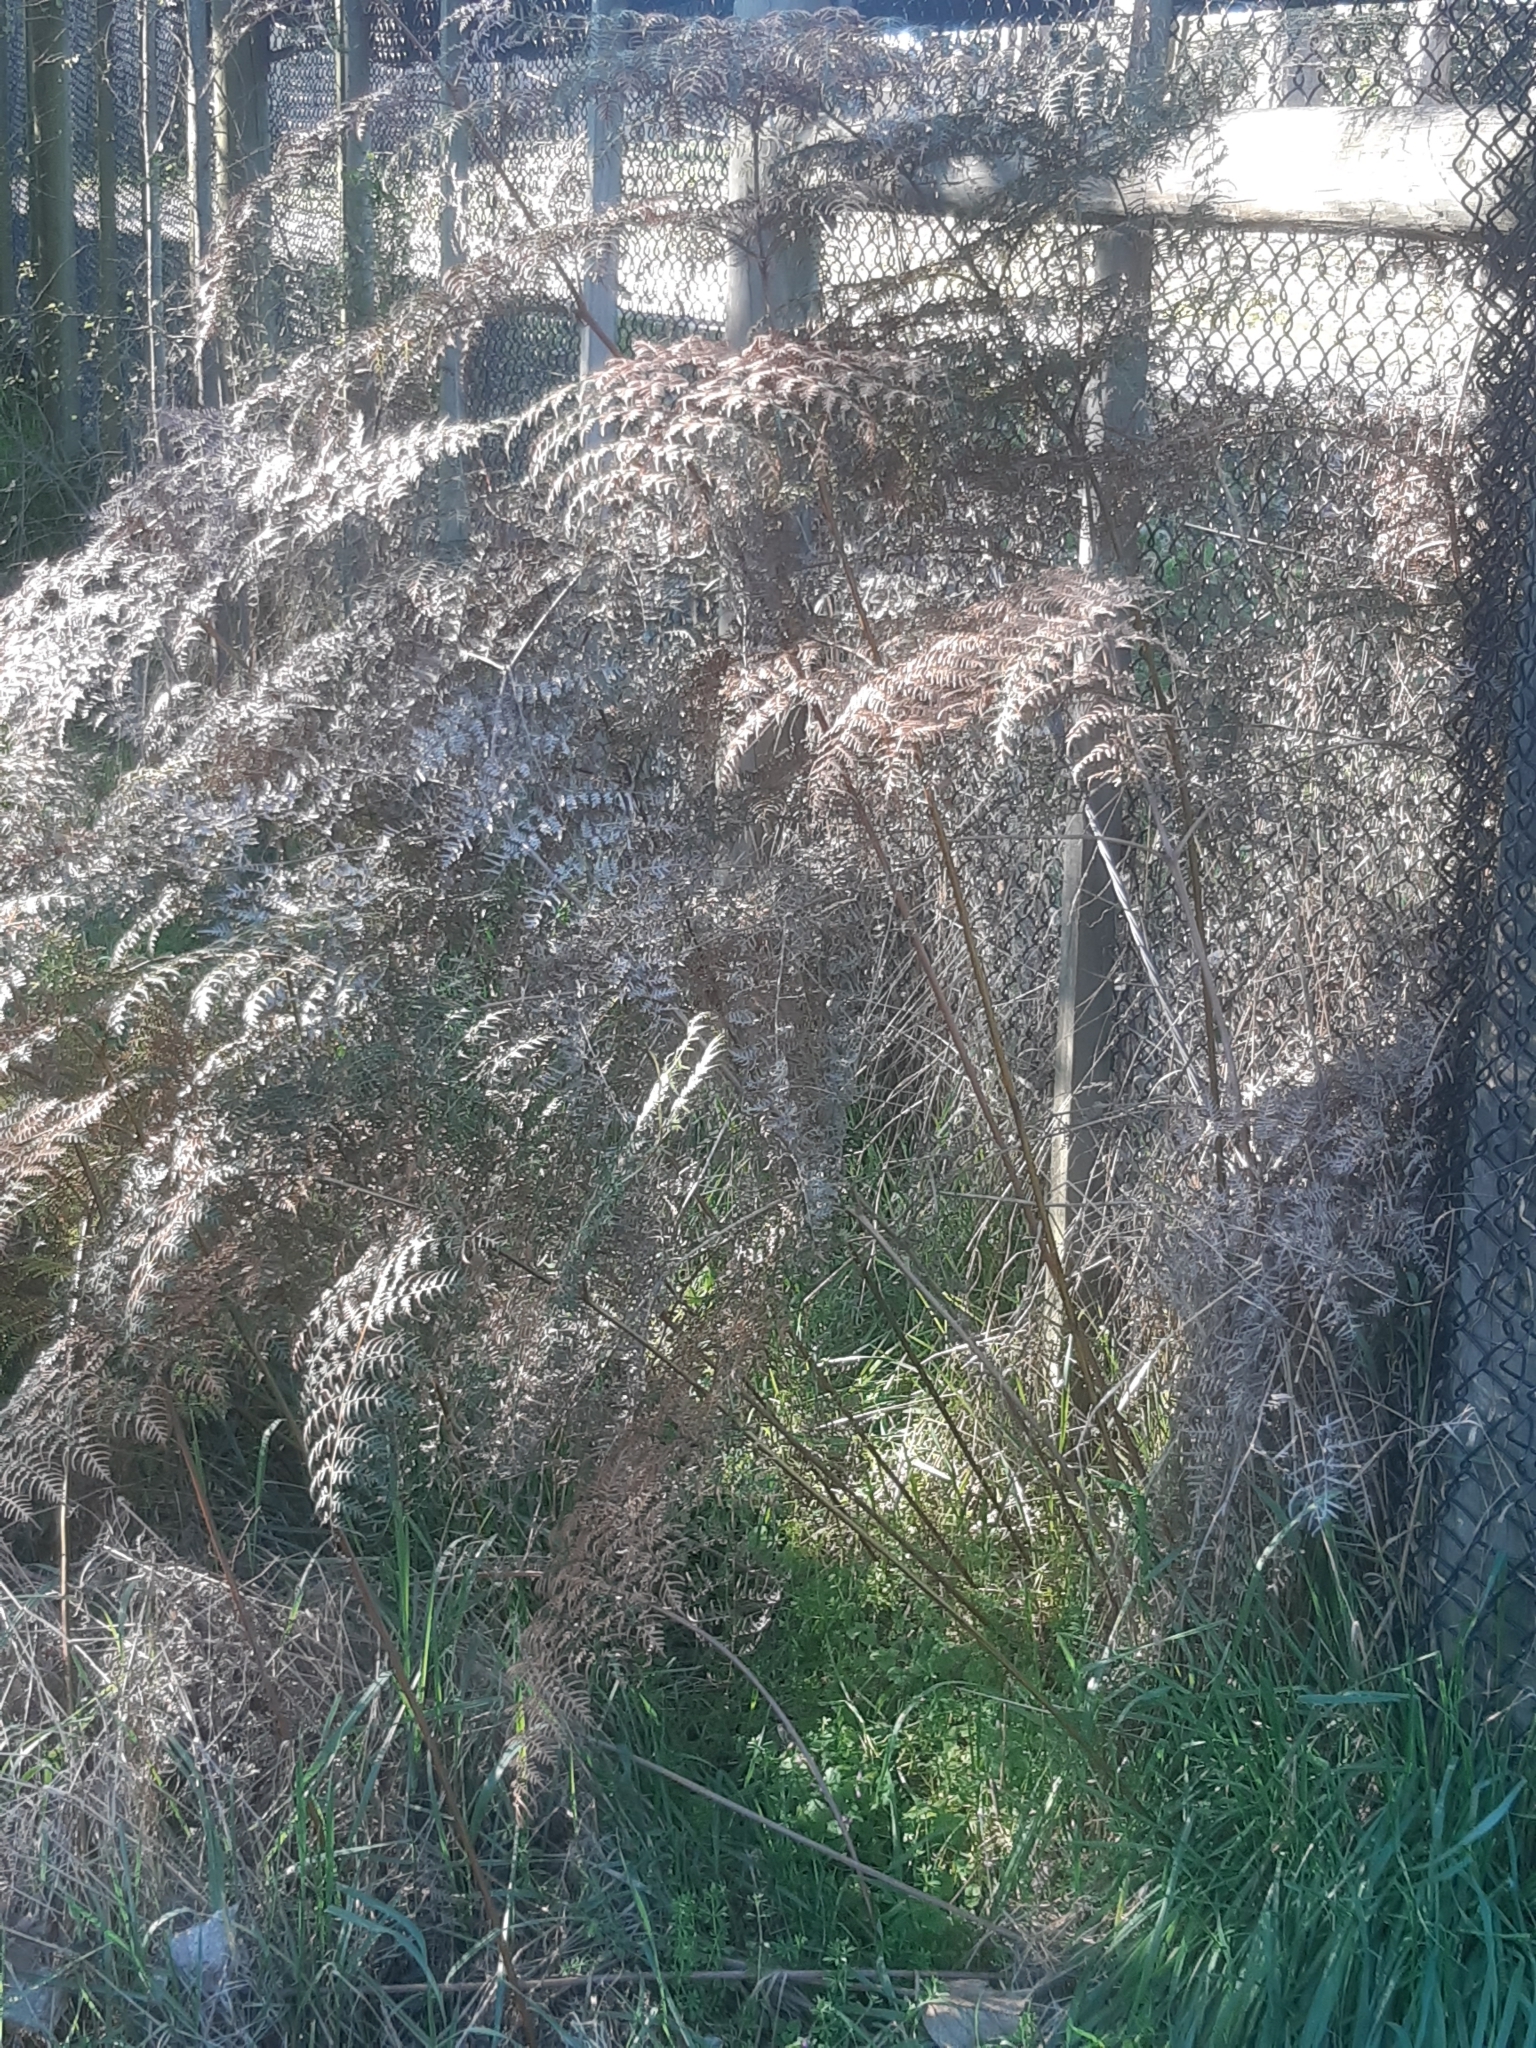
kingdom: Plantae
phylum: Tracheophyta
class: Polypodiopsida
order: Polypodiales
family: Dennstaedtiaceae
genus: Pteridium
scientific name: Pteridium esculentum
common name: Bracken fern
